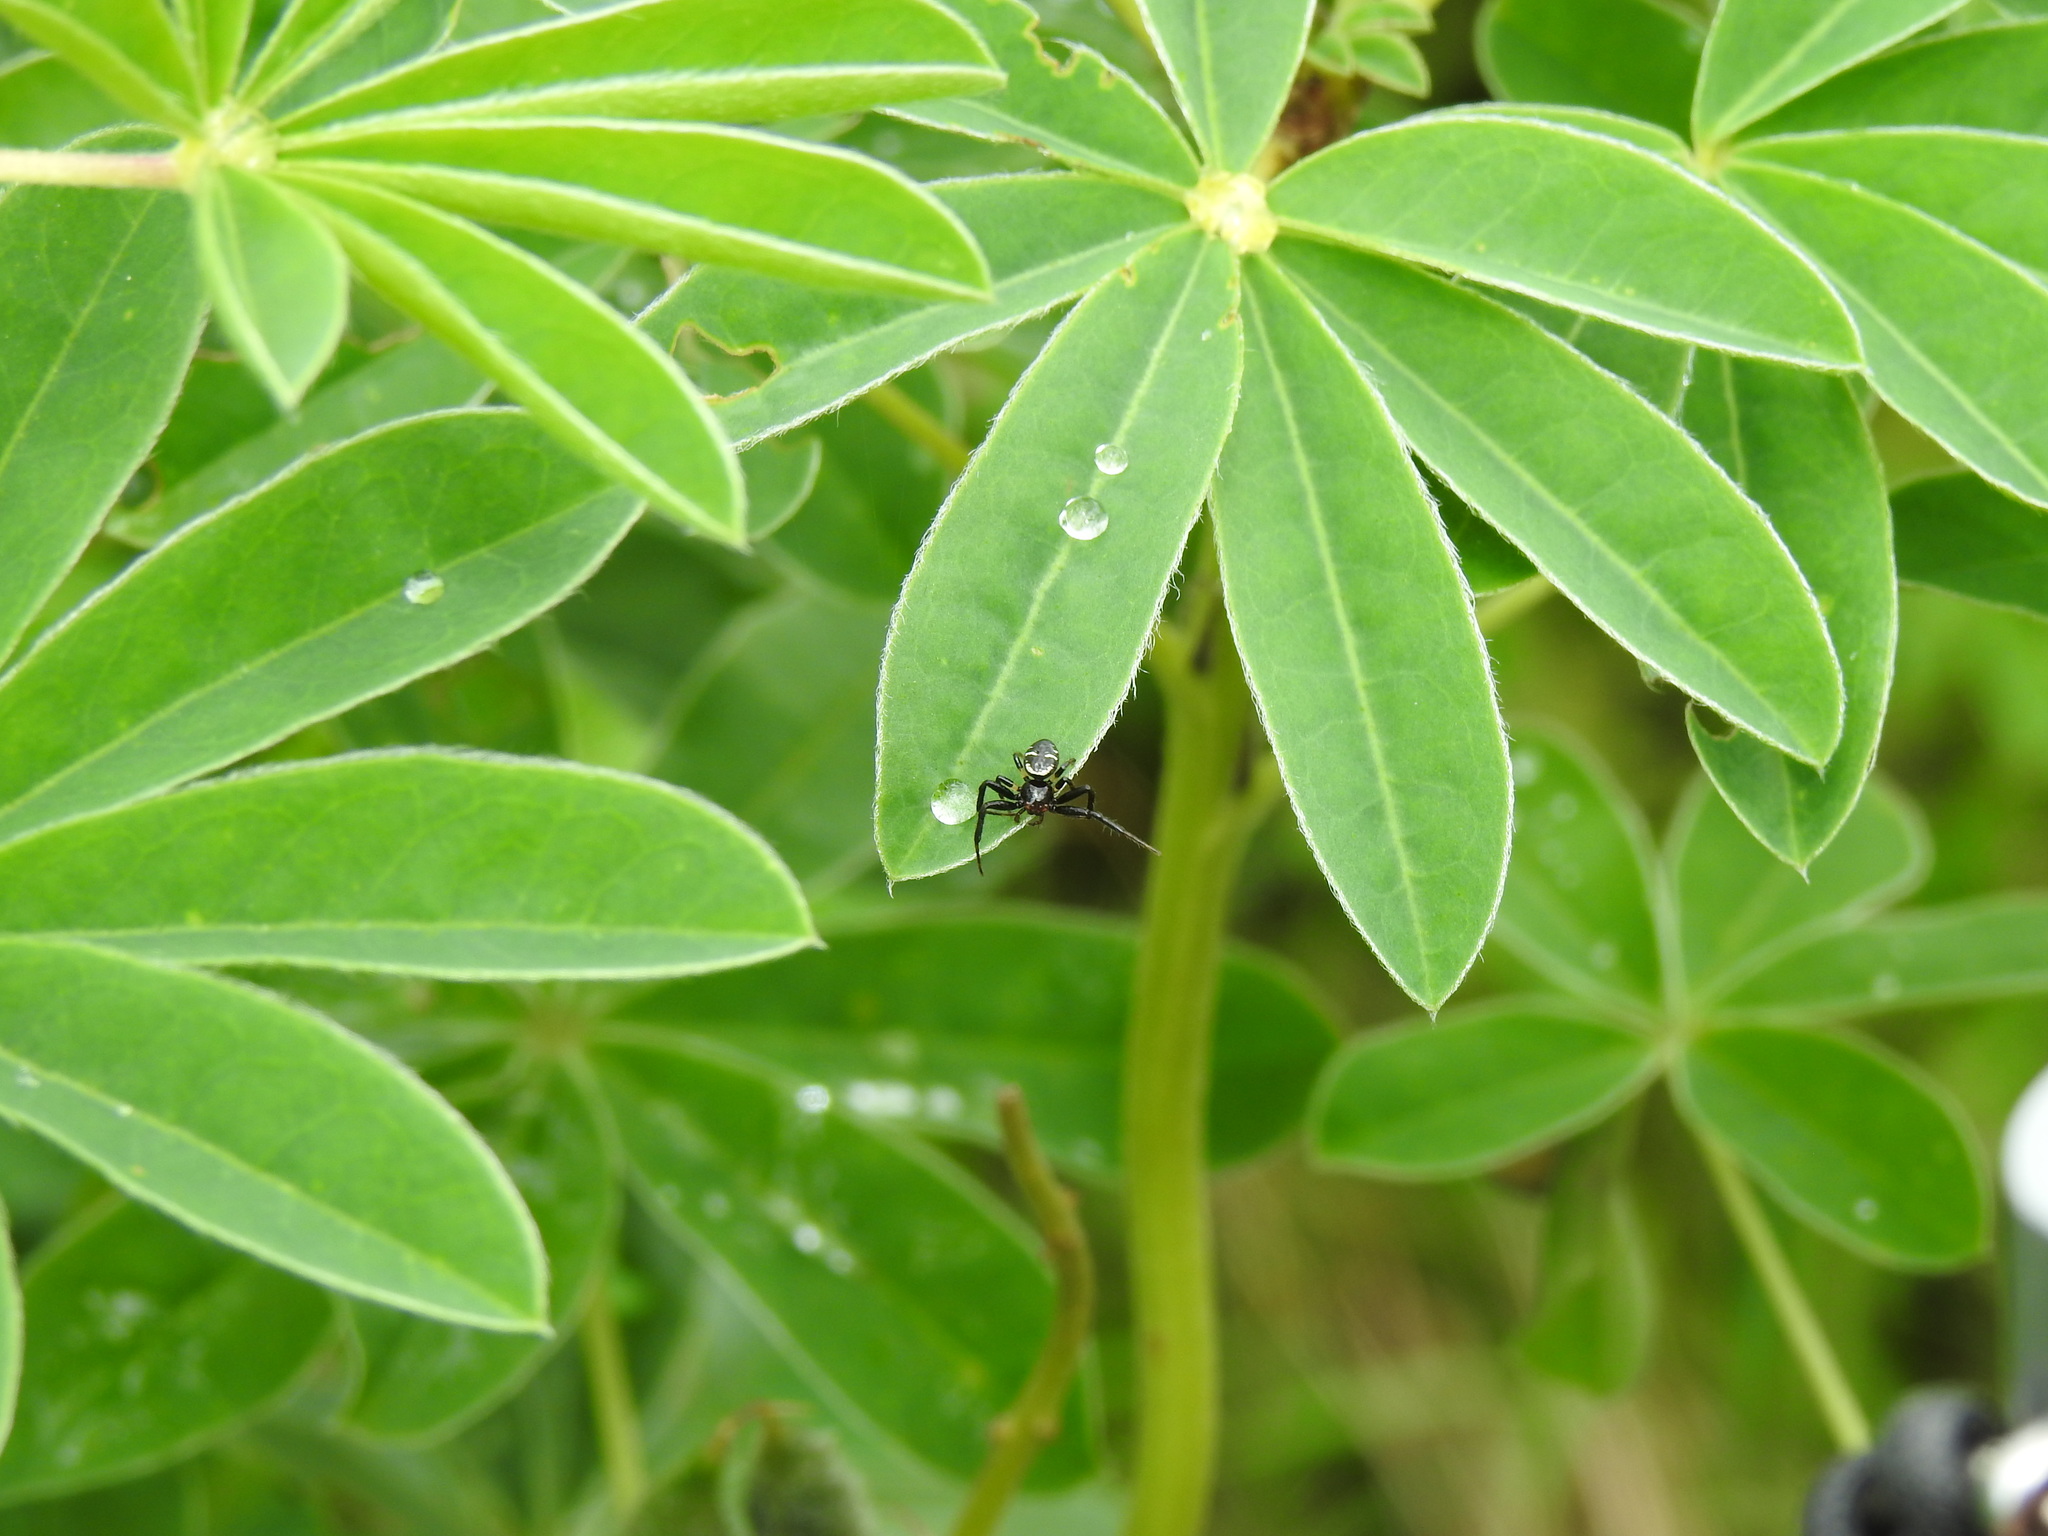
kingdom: Animalia
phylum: Arthropoda
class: Arachnida
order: Araneae
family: Thomisidae
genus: Synema
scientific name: Synema globosum
